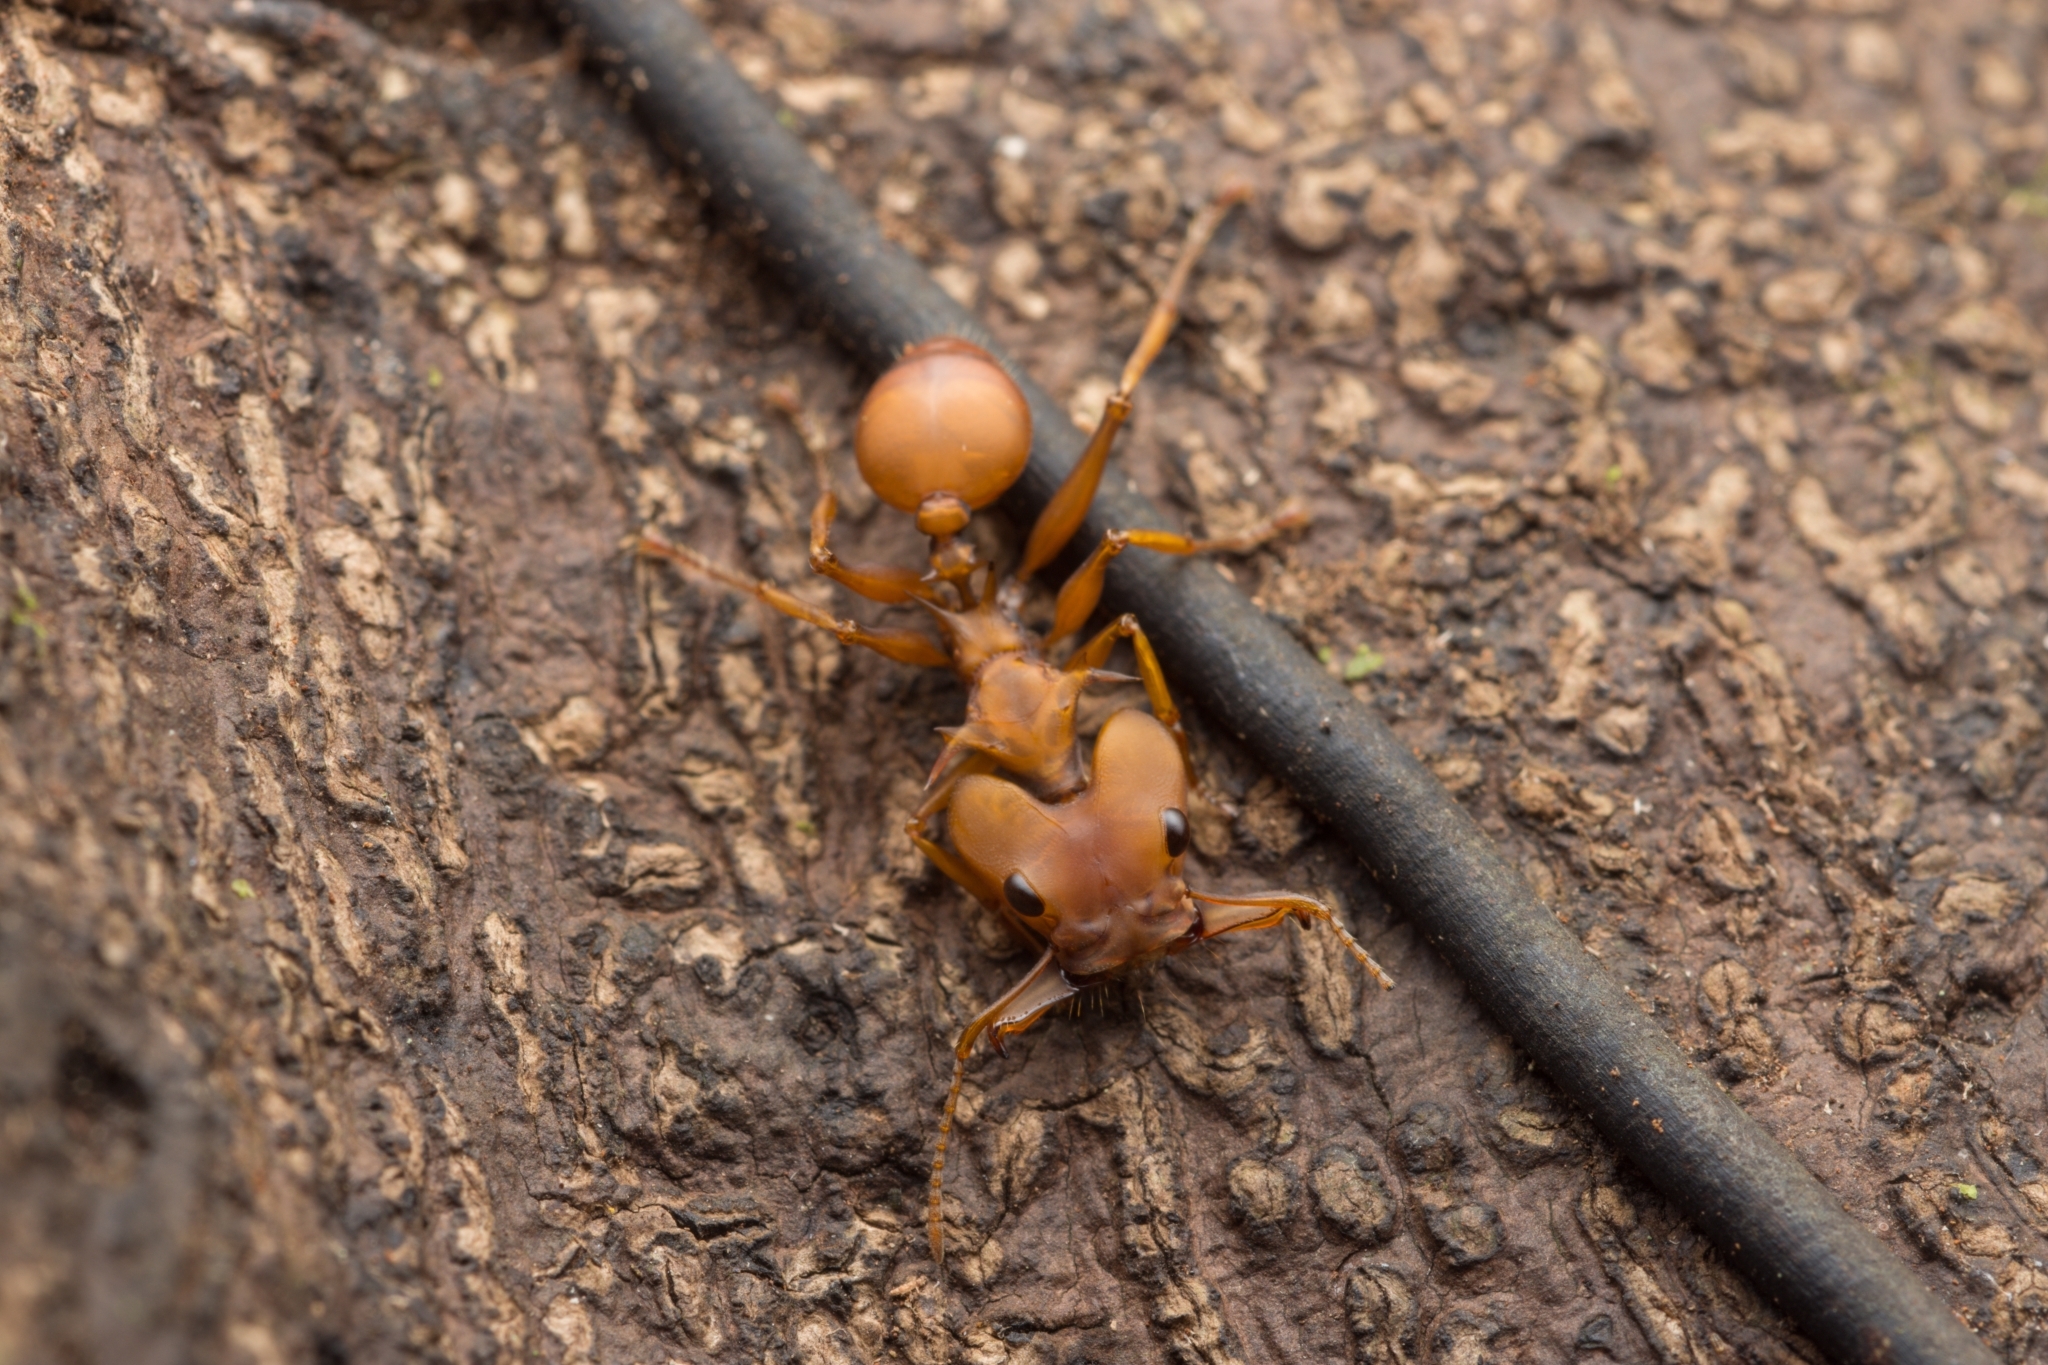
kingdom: Animalia
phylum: Arthropoda
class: Insecta
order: Hymenoptera
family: Formicidae
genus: Daceton
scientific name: Daceton armigerum
